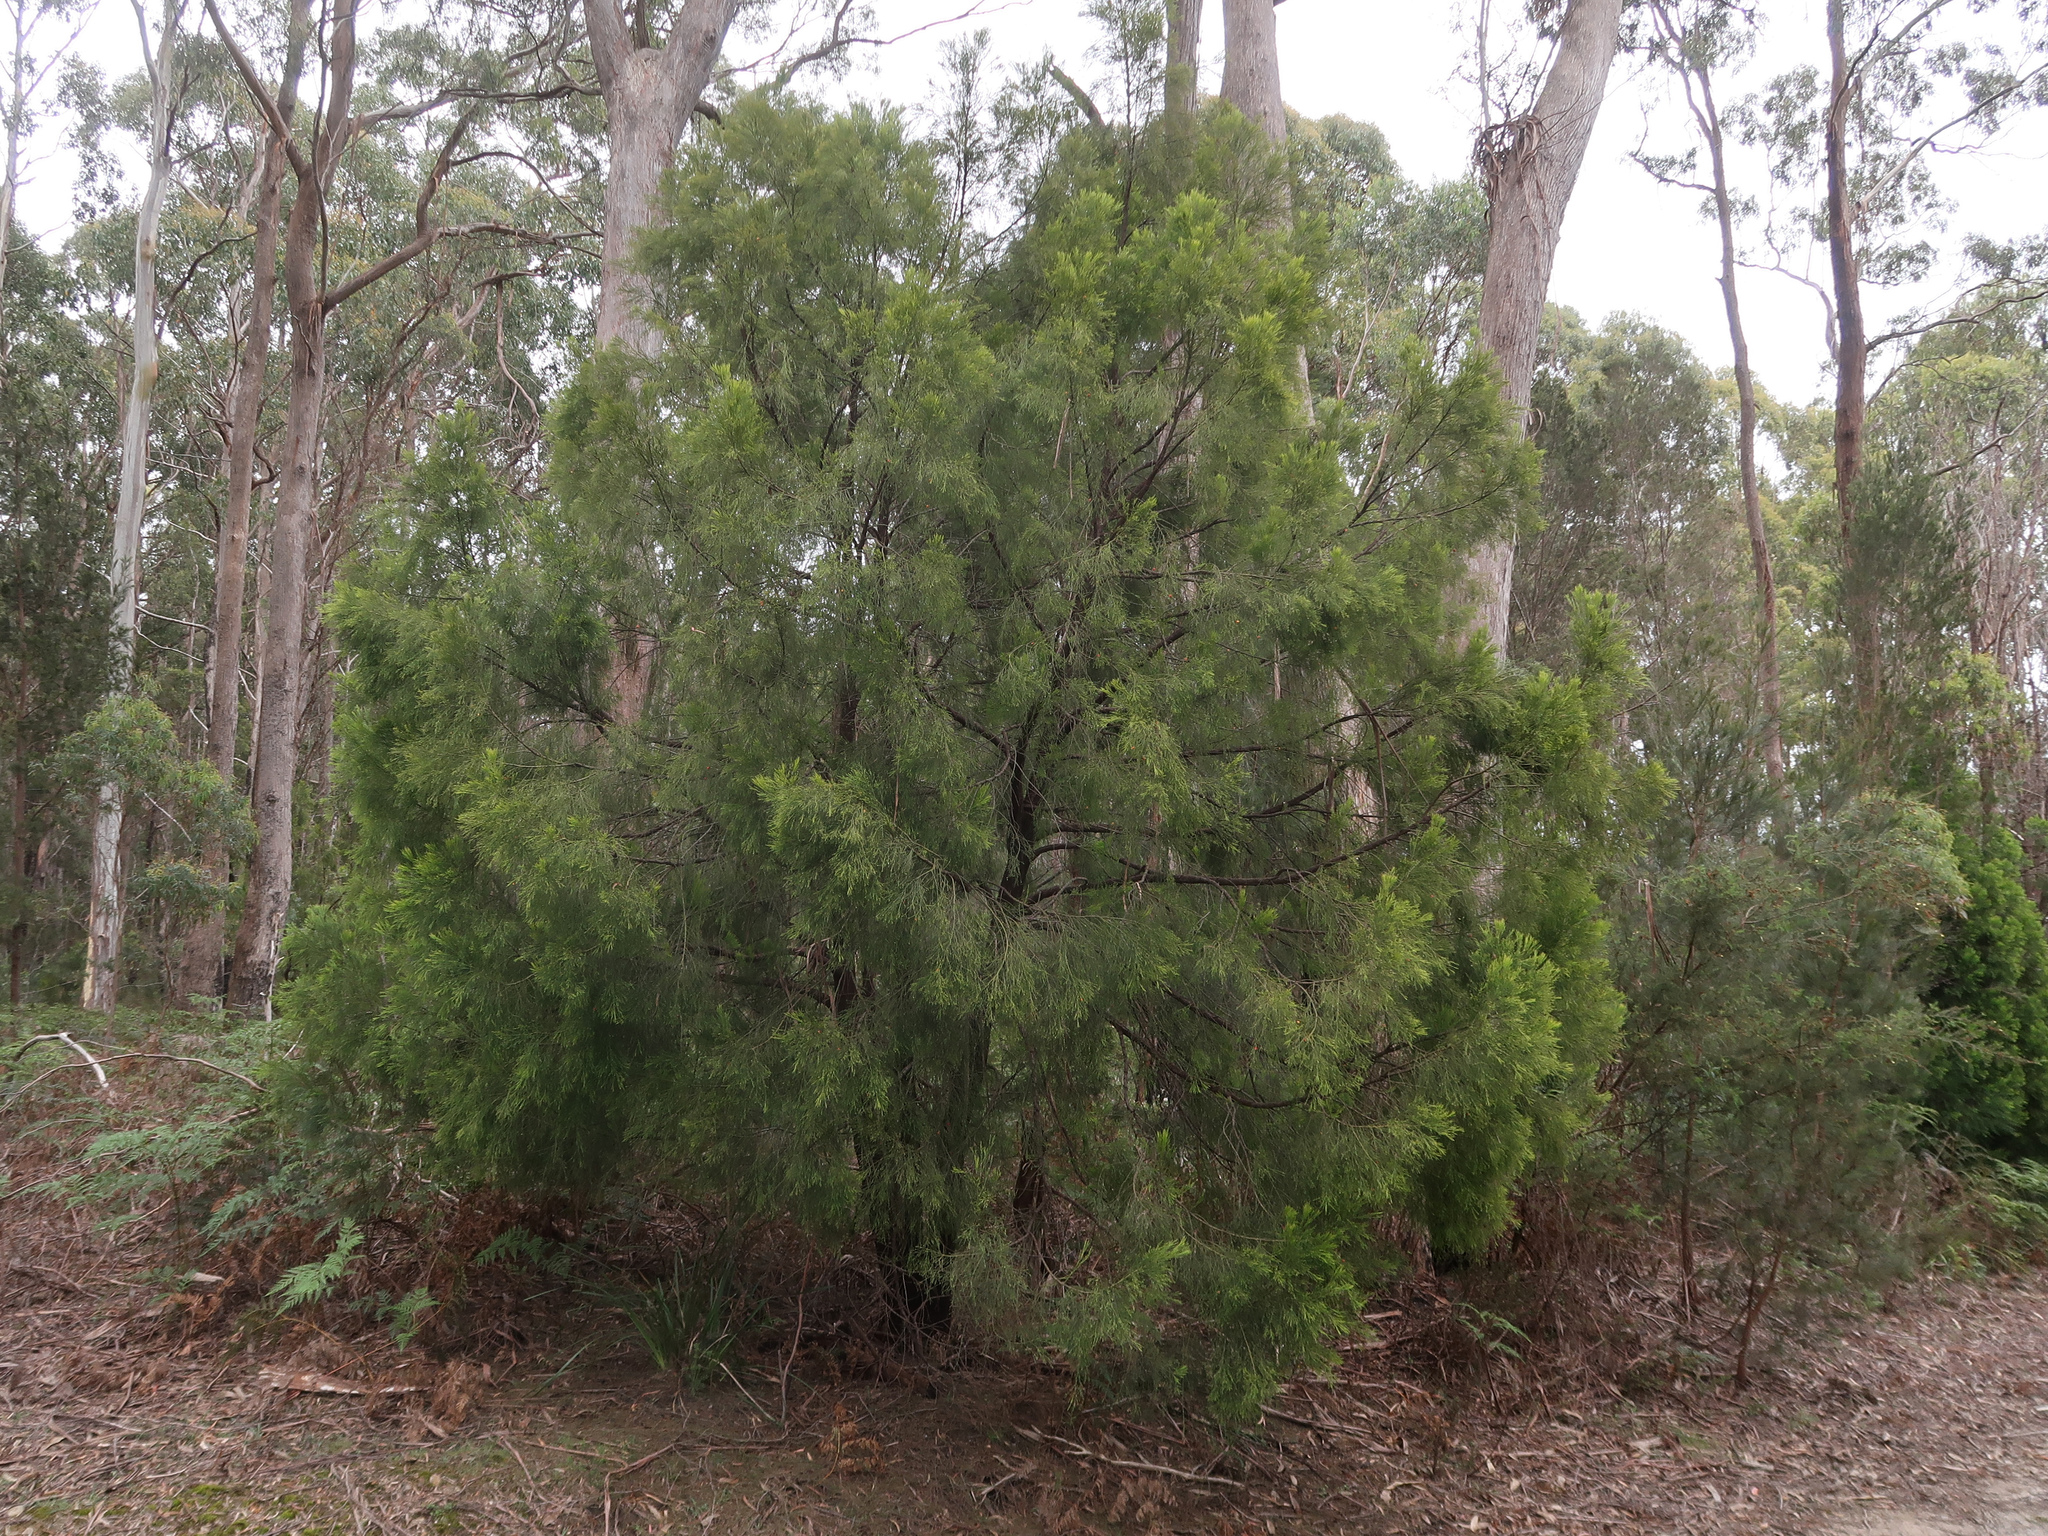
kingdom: Plantae
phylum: Tracheophyta
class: Magnoliopsida
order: Santalales
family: Santalaceae
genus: Exocarpos
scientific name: Exocarpos cupressiformis
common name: Cherry ballart
